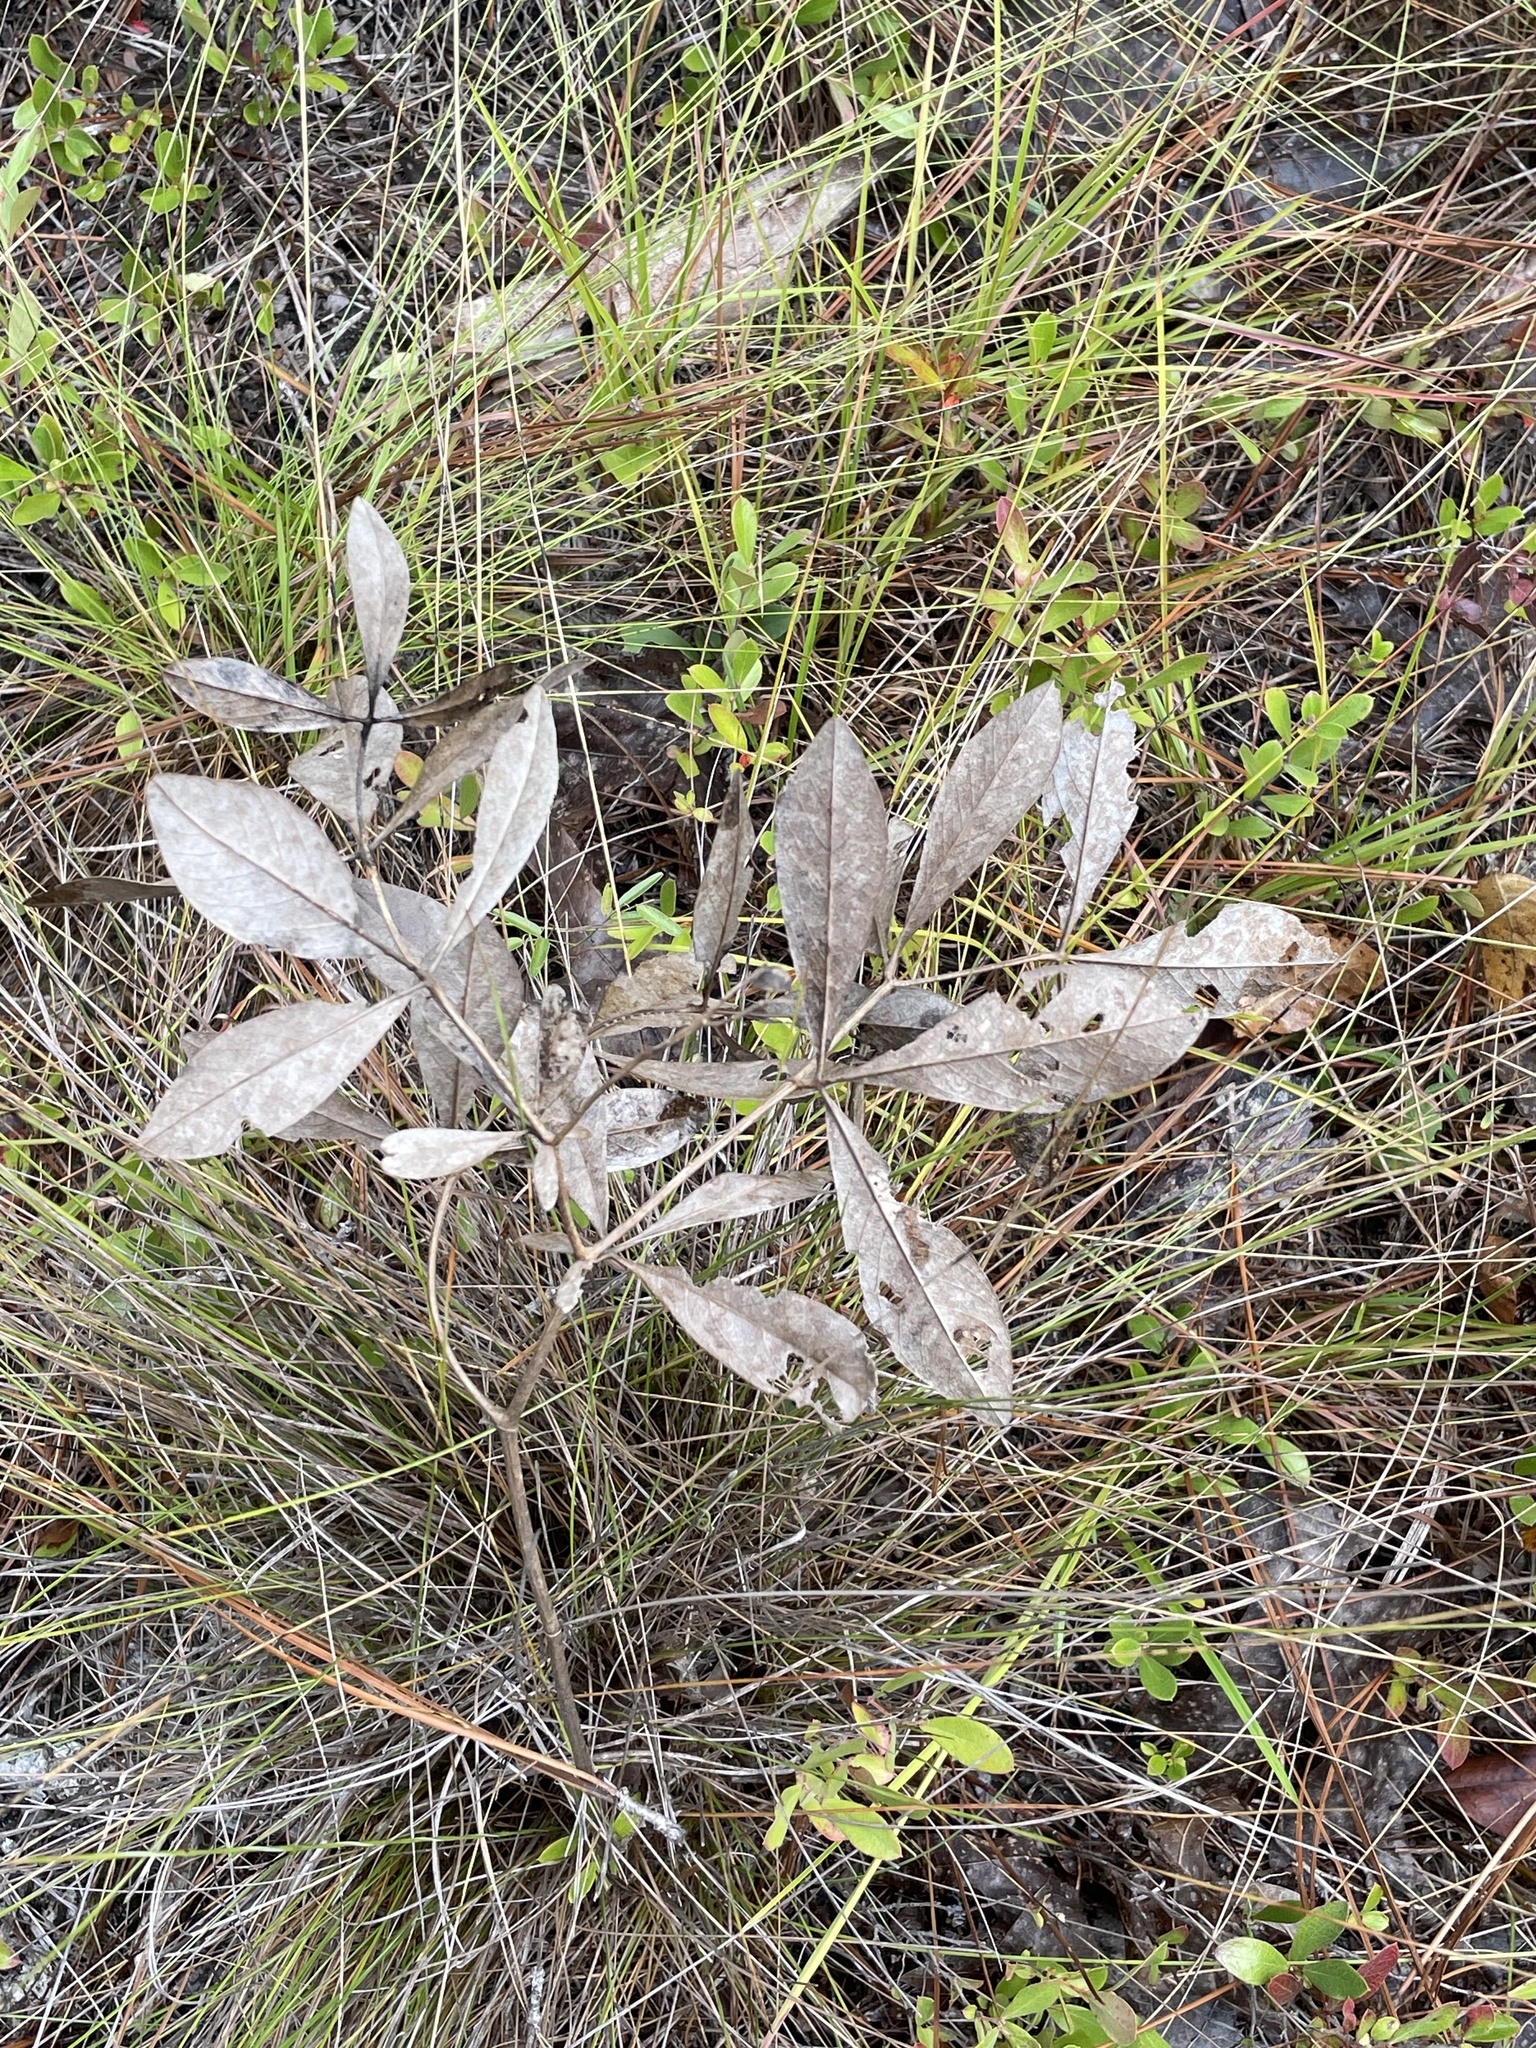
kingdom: Plantae
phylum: Tracheophyta
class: Magnoliopsida
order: Fabales
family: Fabaceae
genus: Baptisia
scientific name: Baptisia cinerea
